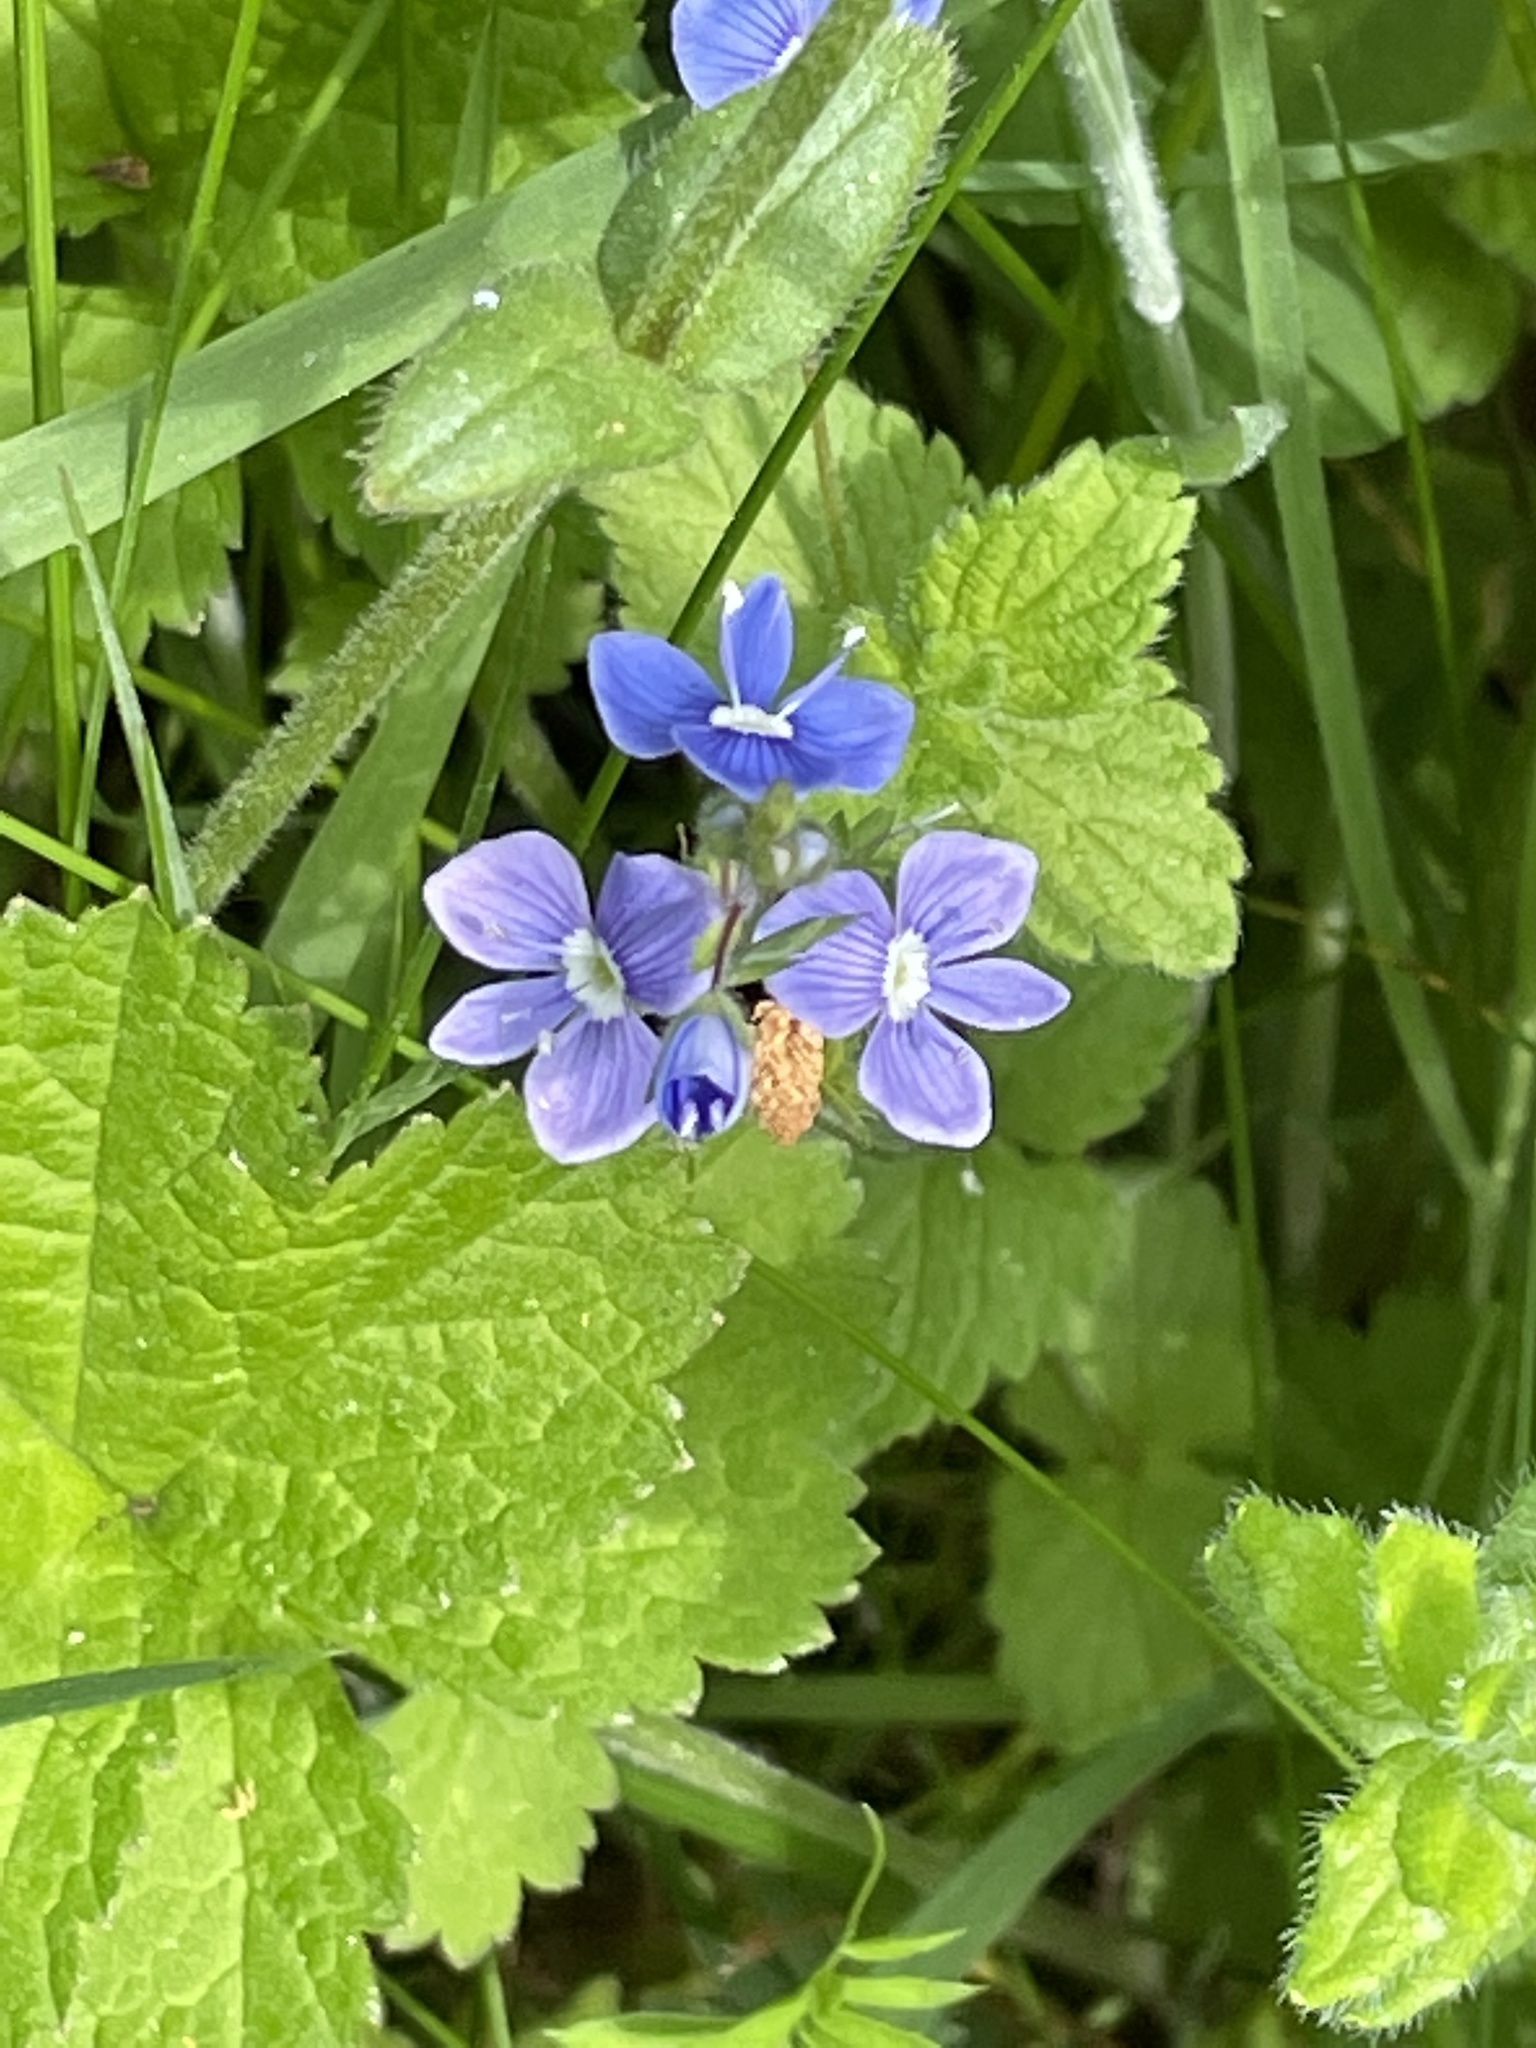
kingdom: Plantae
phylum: Tracheophyta
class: Magnoliopsida
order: Lamiales
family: Plantaginaceae
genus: Veronica
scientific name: Veronica chamaedrys
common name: Germander speedwell
